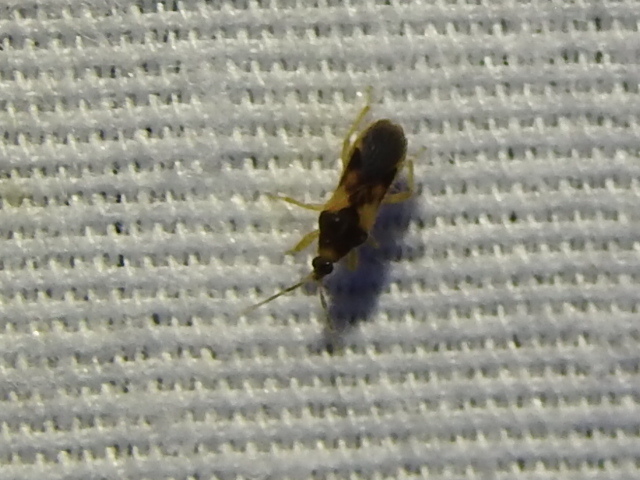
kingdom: Animalia
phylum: Arthropoda
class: Insecta
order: Hemiptera
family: Nabidae
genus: Phorticus
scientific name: Phorticus collaris
